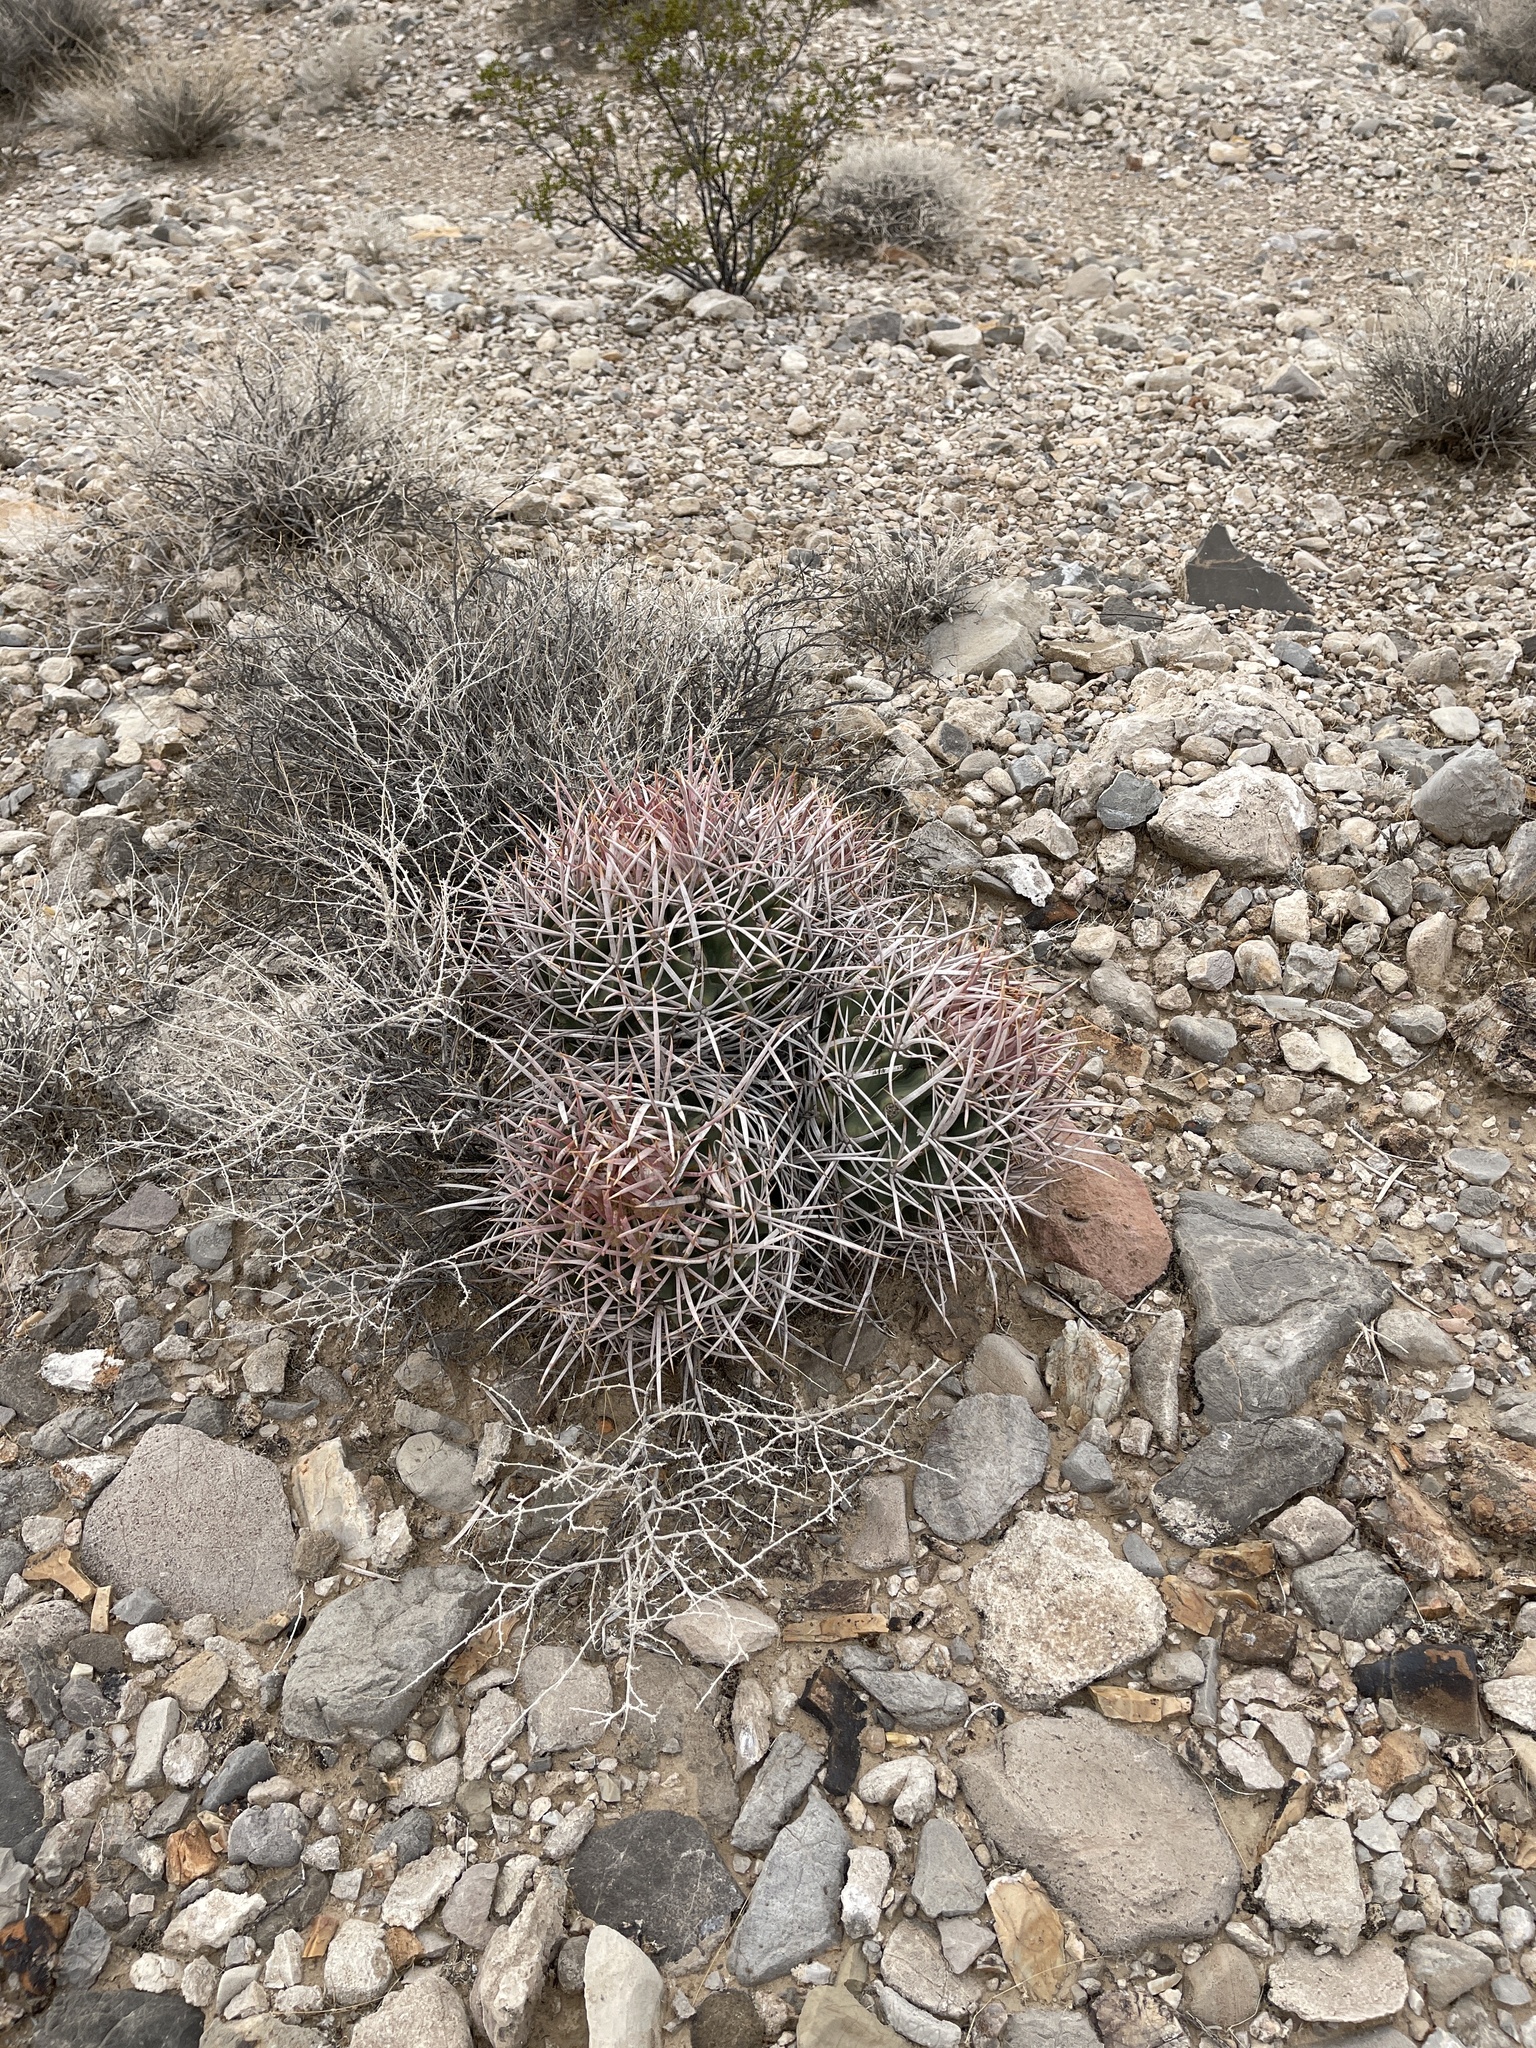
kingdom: Plantae
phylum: Tracheophyta
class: Magnoliopsida
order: Caryophyllales
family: Cactaceae
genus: Echinocactus
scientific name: Echinocactus polycephalus
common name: Cottontop cactus
